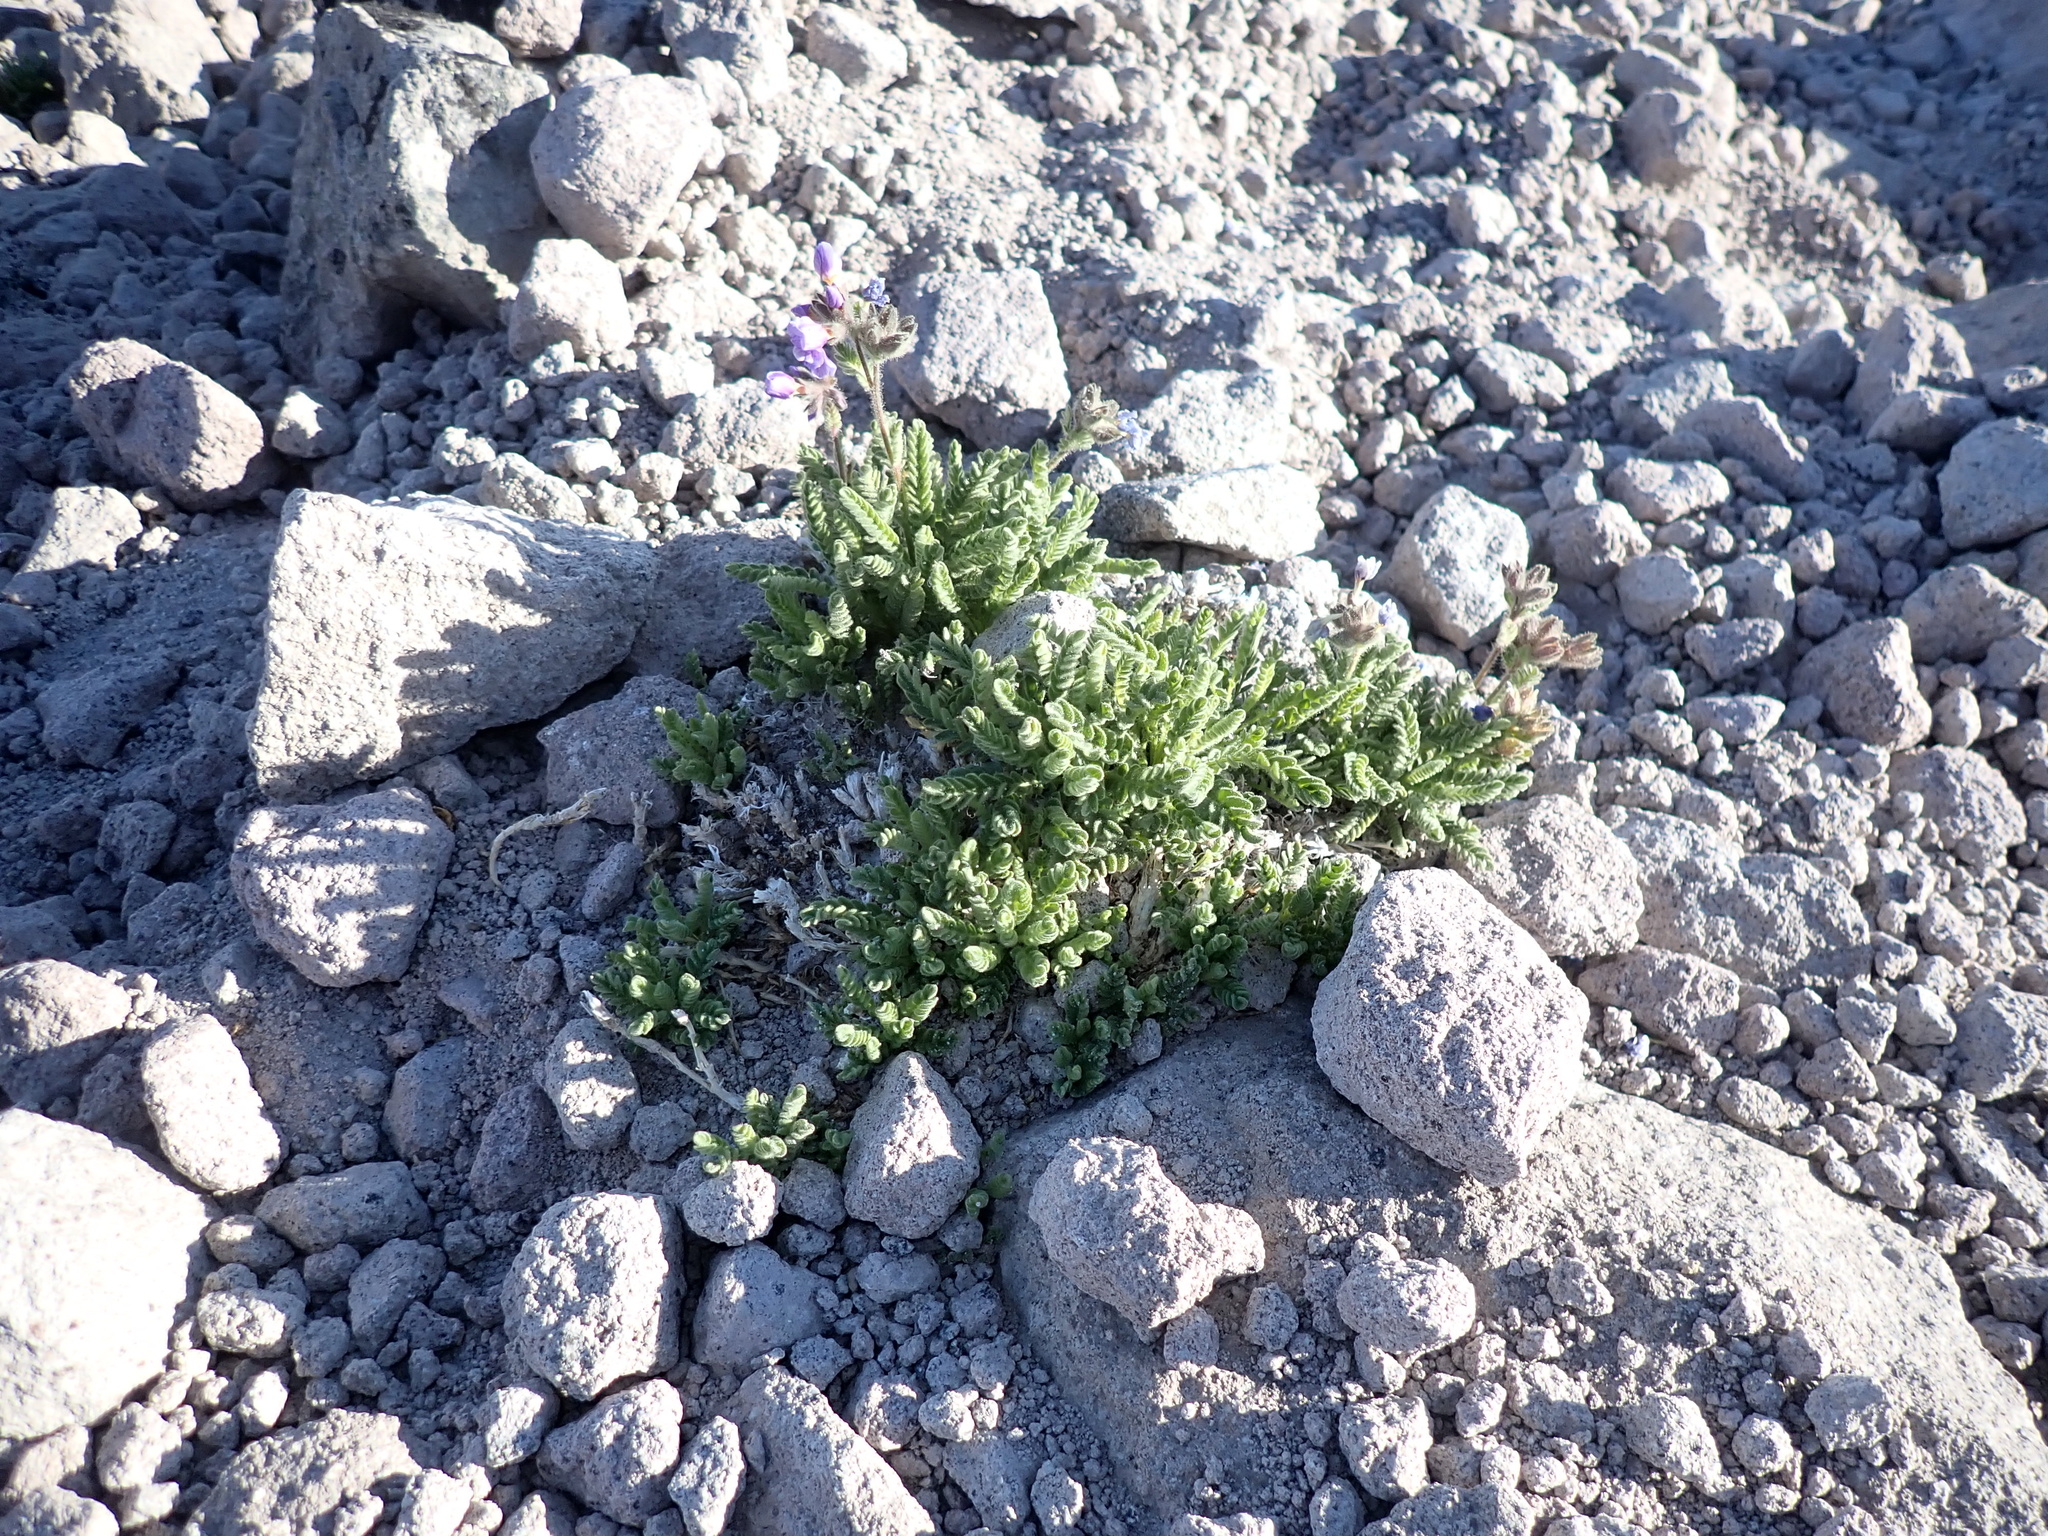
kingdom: Plantae
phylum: Tracheophyta
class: Magnoliopsida
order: Ericales
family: Polemoniaceae
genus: Polemonium
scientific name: Polemonium elegans
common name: Elegant jacob's-ladder
